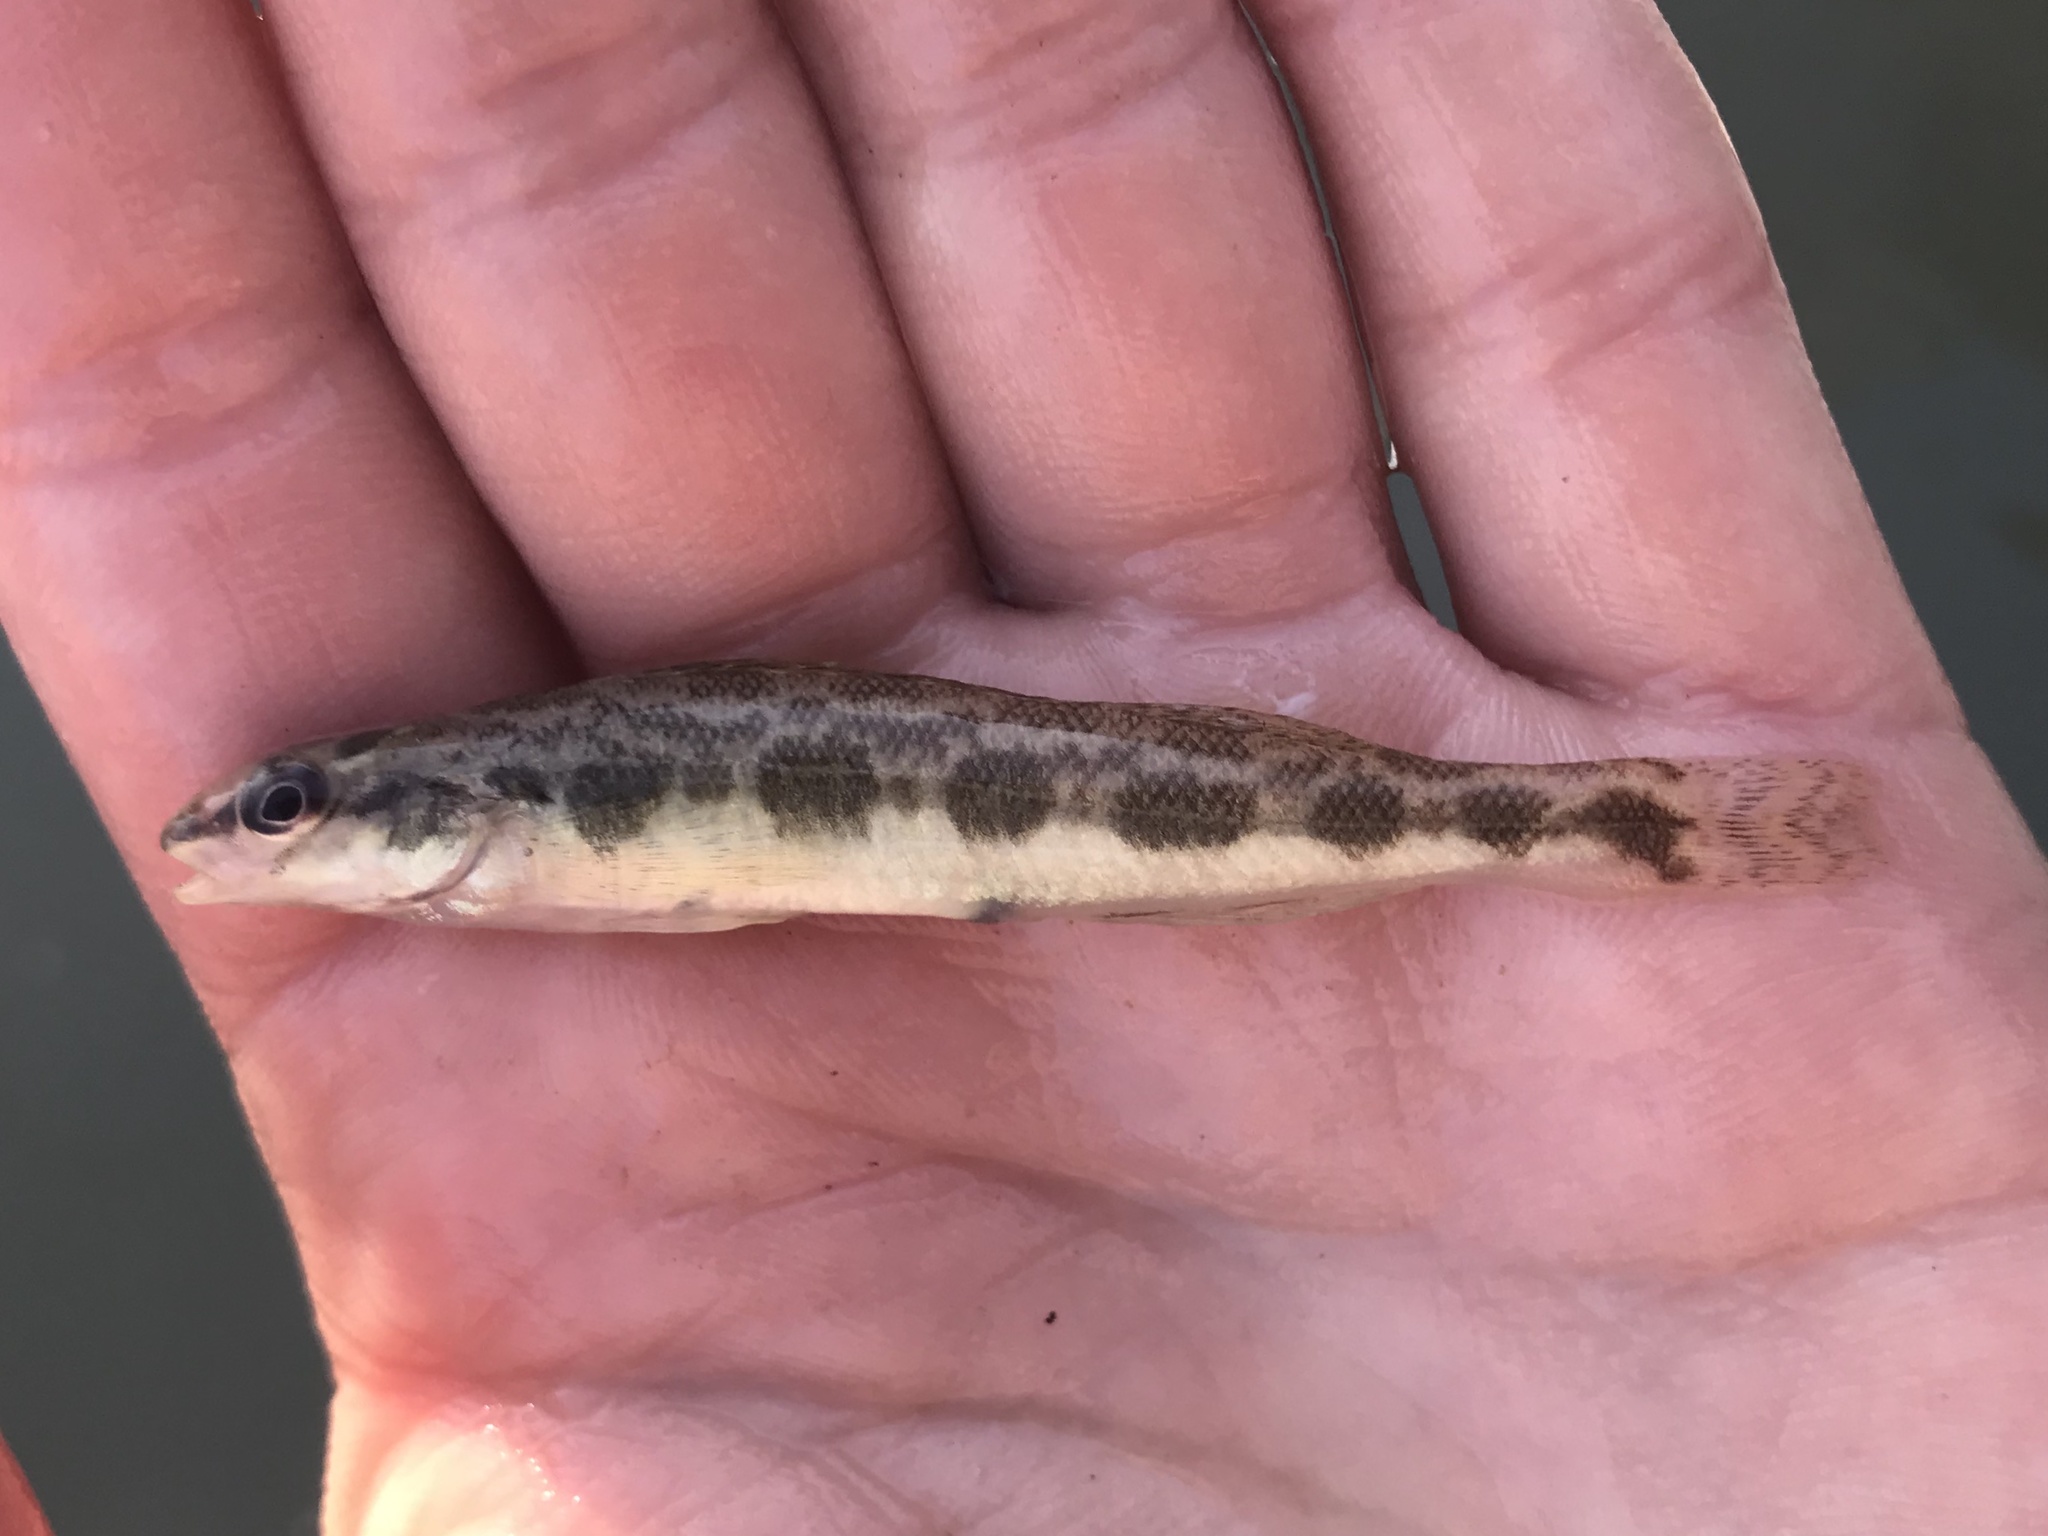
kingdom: Animalia
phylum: Chordata
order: Perciformes
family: Percidae
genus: Percina
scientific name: Percina apristis
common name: Guadalupe darter
